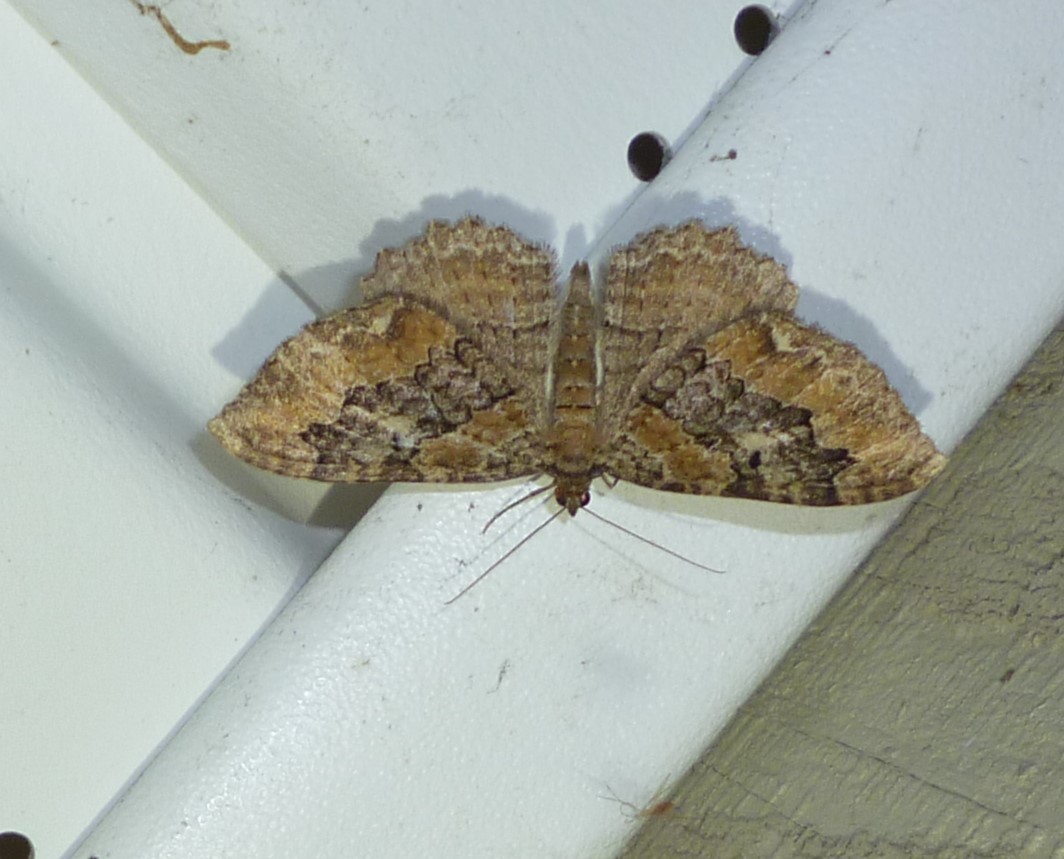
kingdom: Animalia
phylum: Arthropoda
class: Insecta
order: Lepidoptera
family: Geometridae
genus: Rheumaptera
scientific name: Rheumaptera
